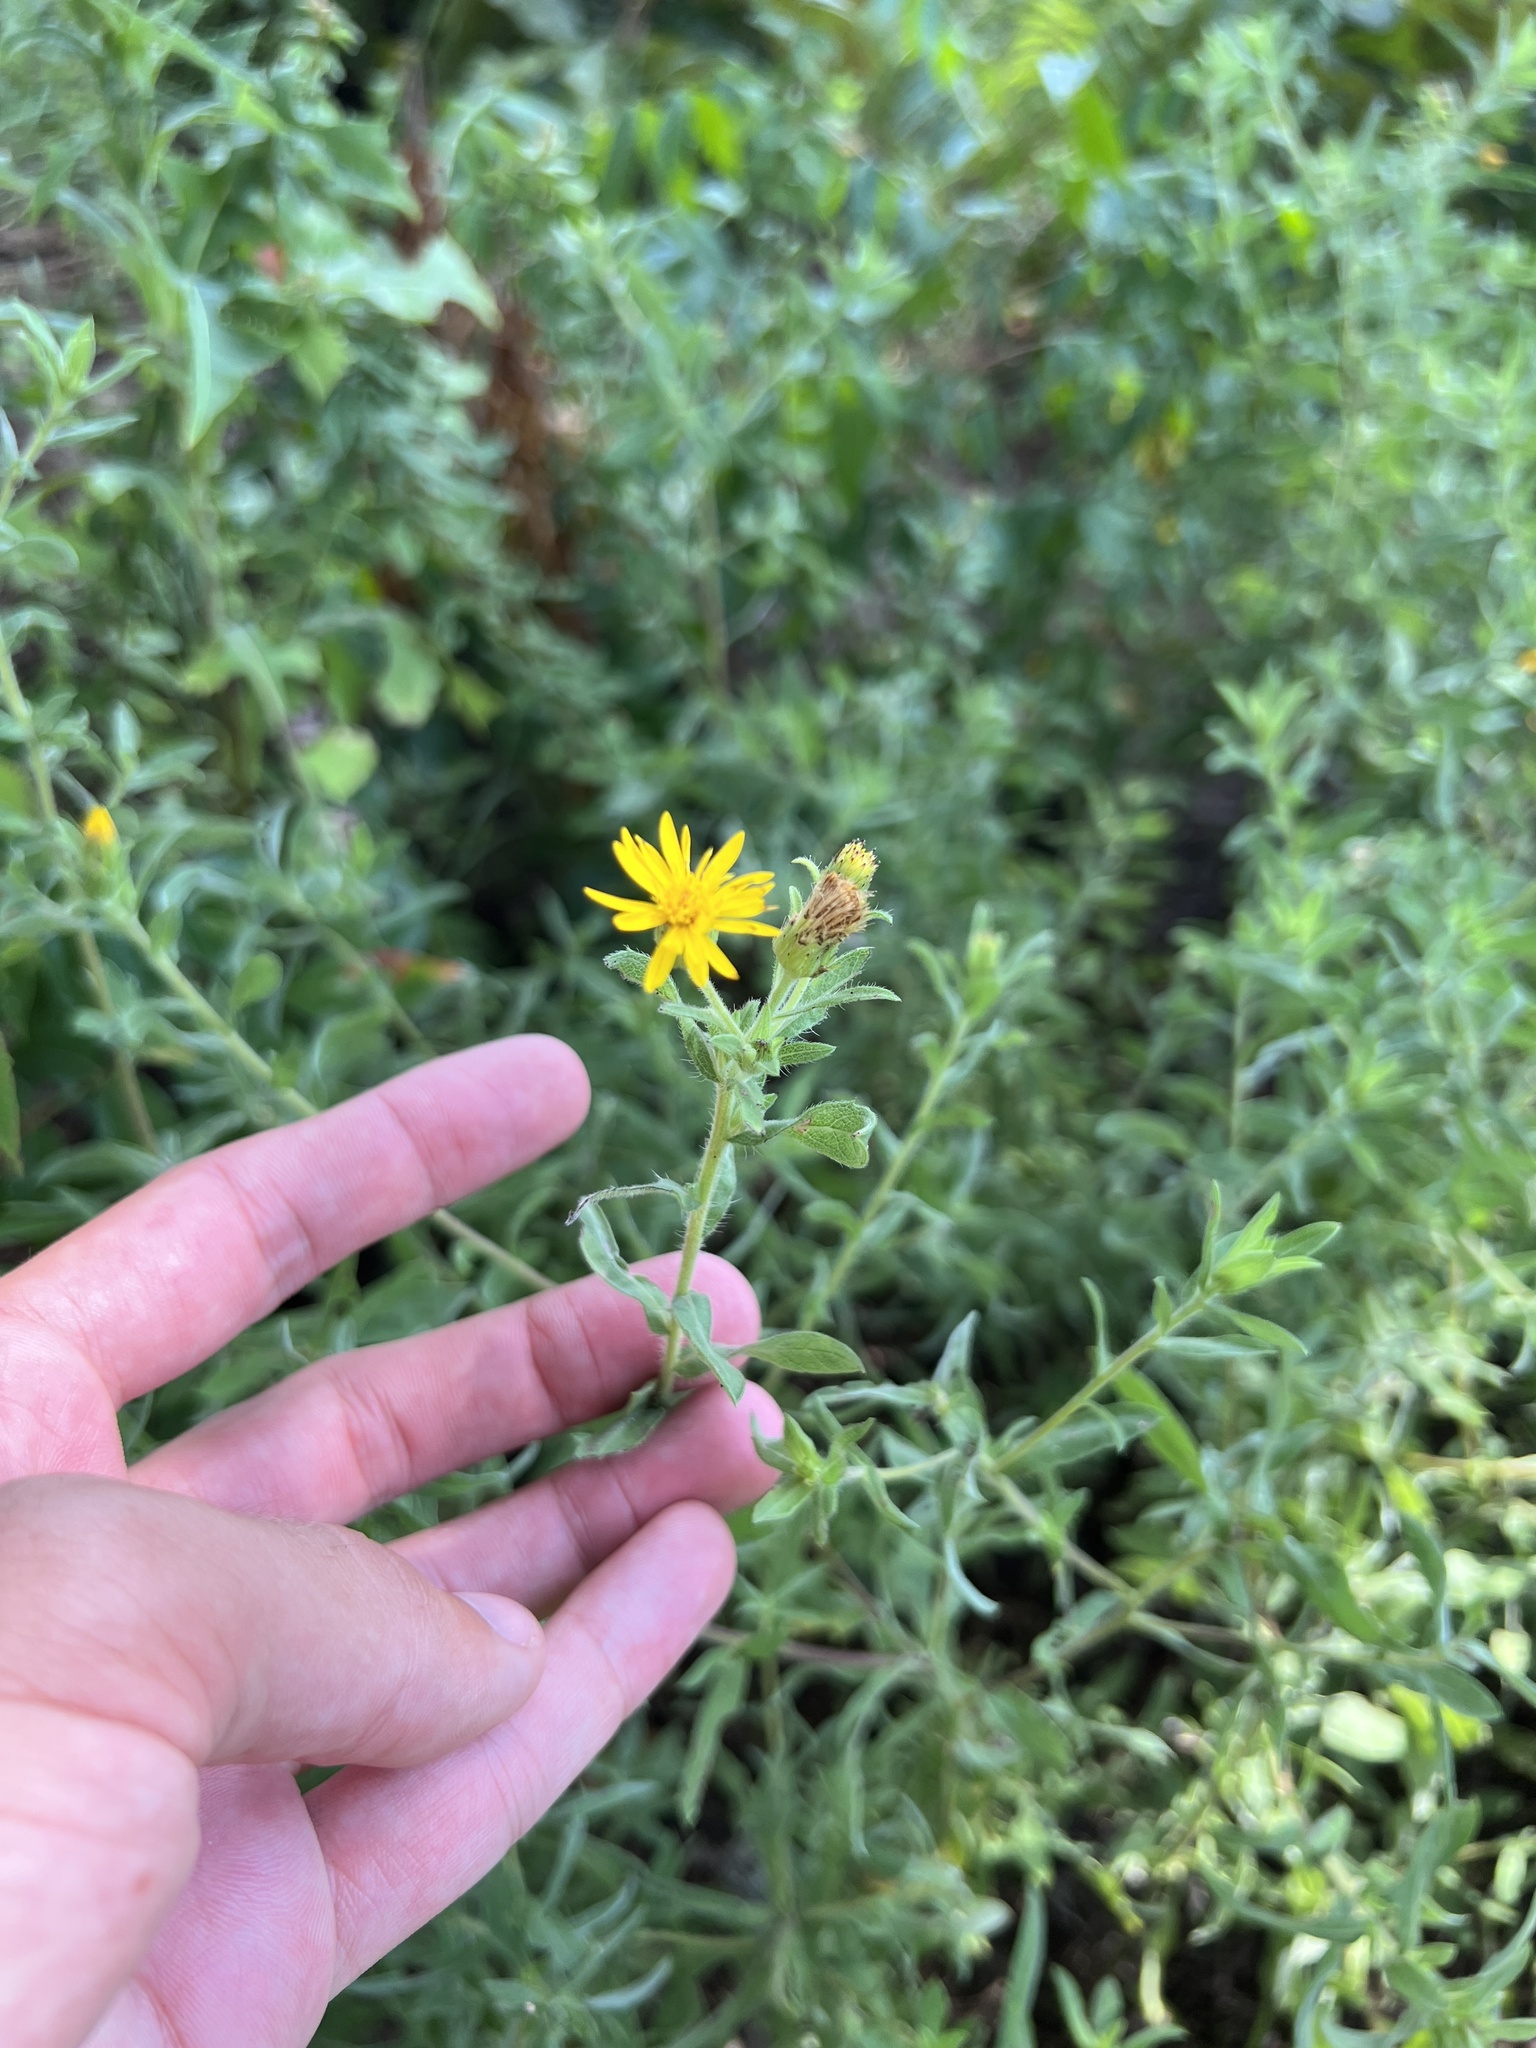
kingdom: Plantae
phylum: Tracheophyta
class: Magnoliopsida
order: Asterales
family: Asteraceae
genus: Heterotheca
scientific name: Heterotheca camporum
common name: Prairie golden-aster
